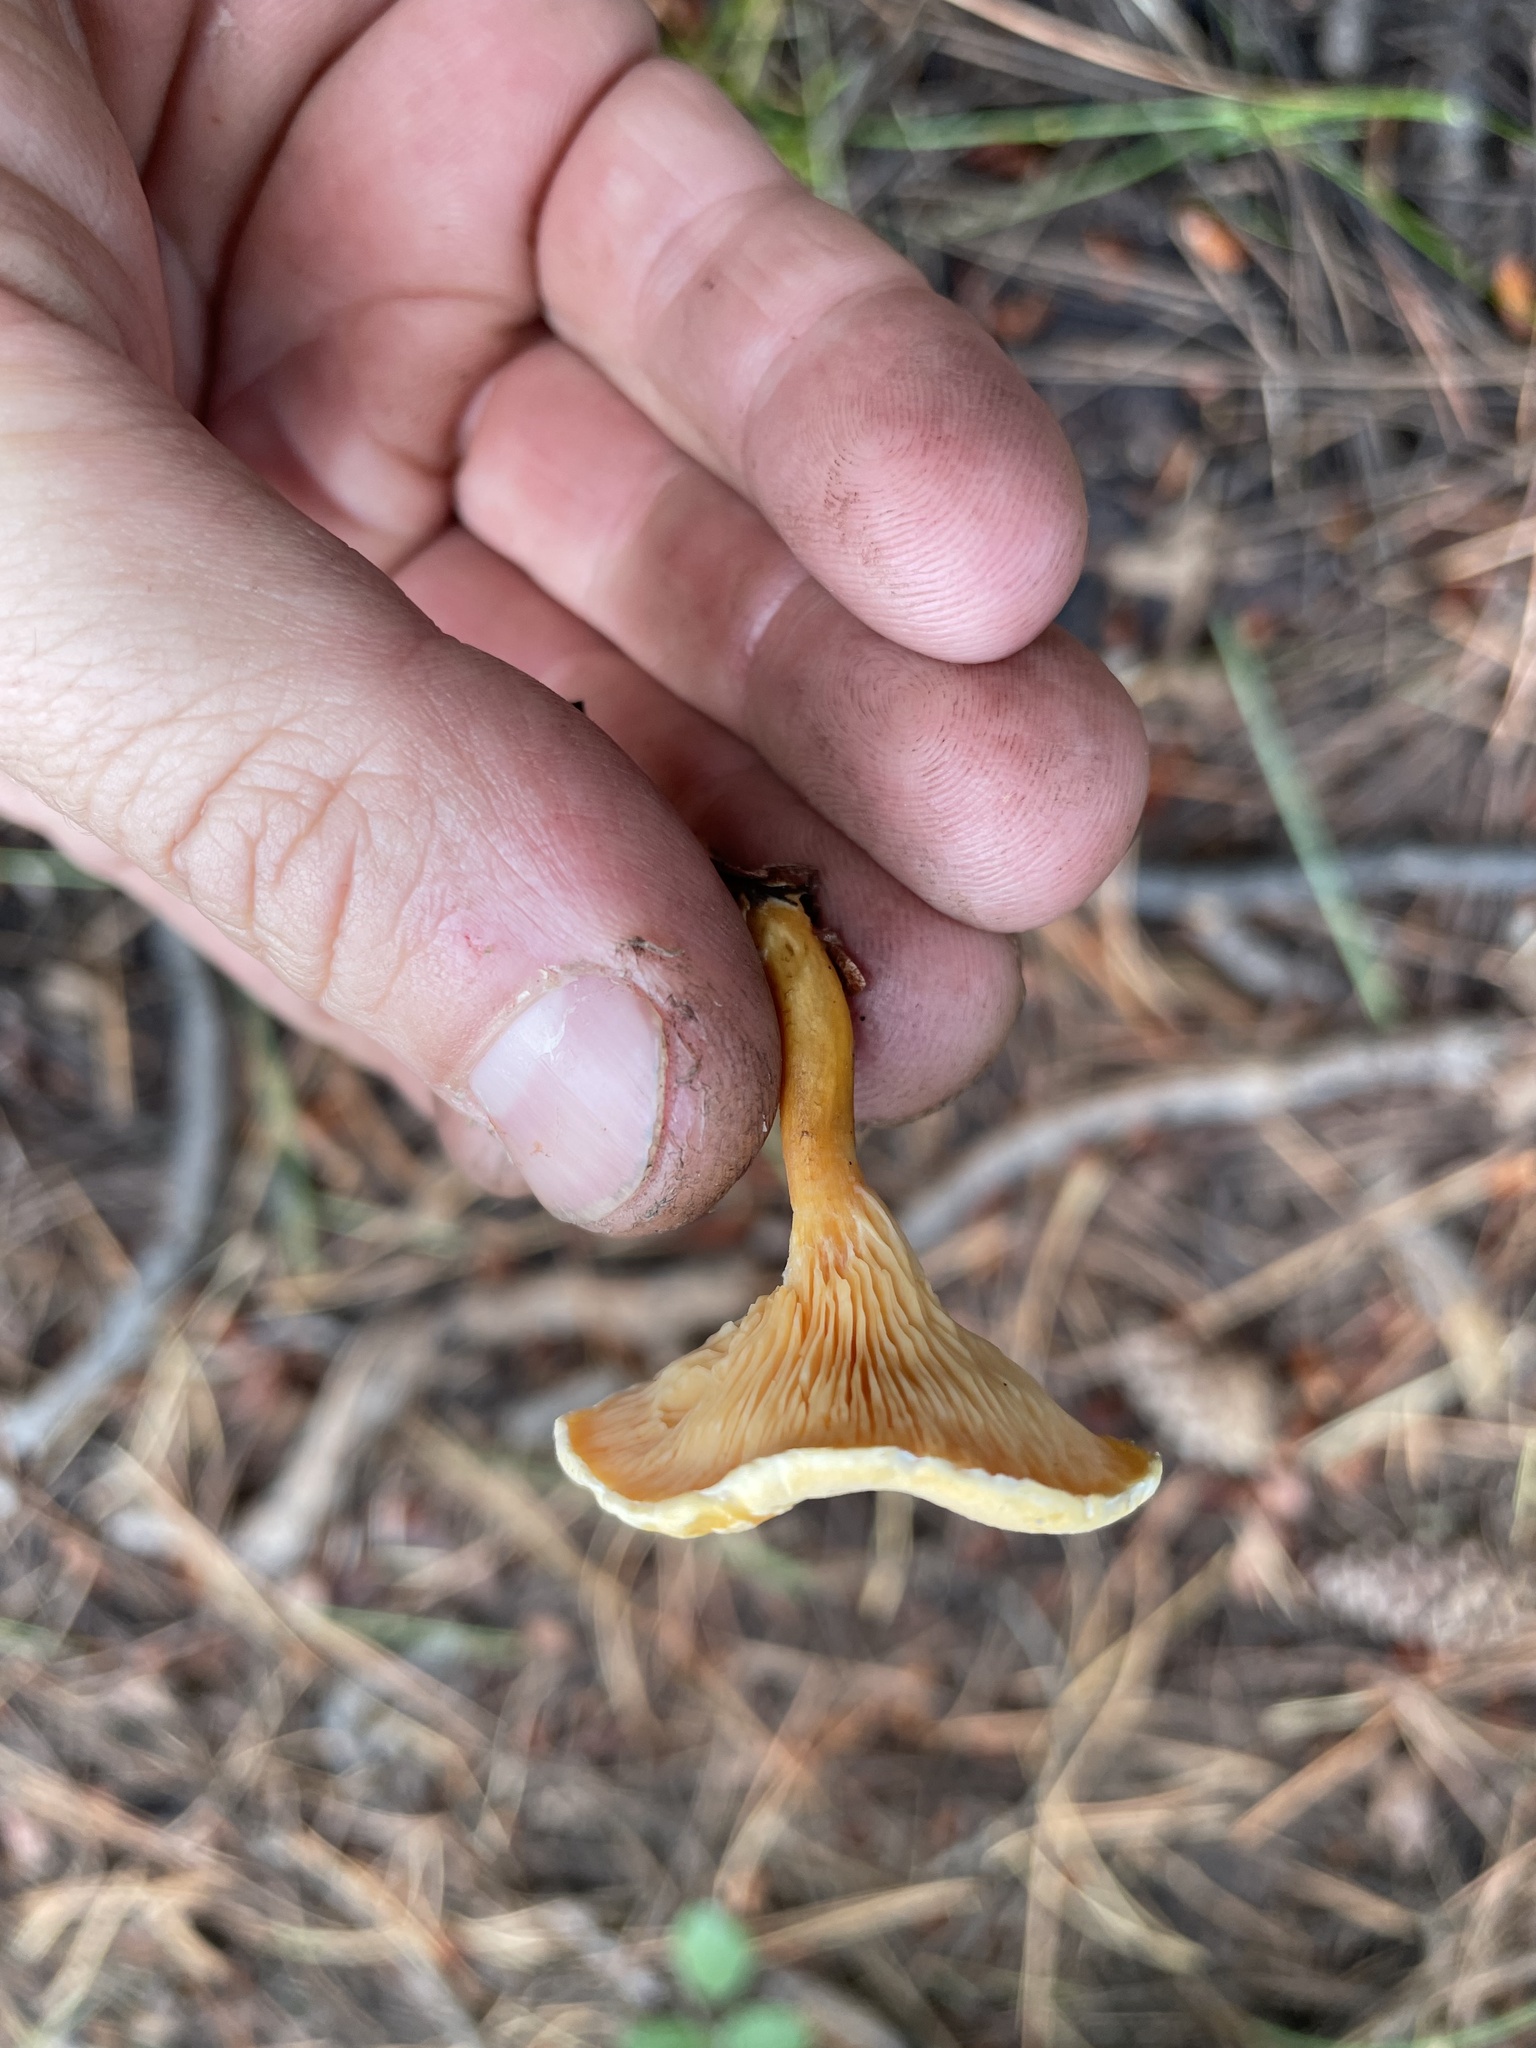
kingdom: Fungi
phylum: Basidiomycota
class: Agaricomycetes
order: Boletales
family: Hygrophoropsidaceae
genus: Hygrophoropsis
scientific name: Hygrophoropsis aurantiaca
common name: False chanterelle
